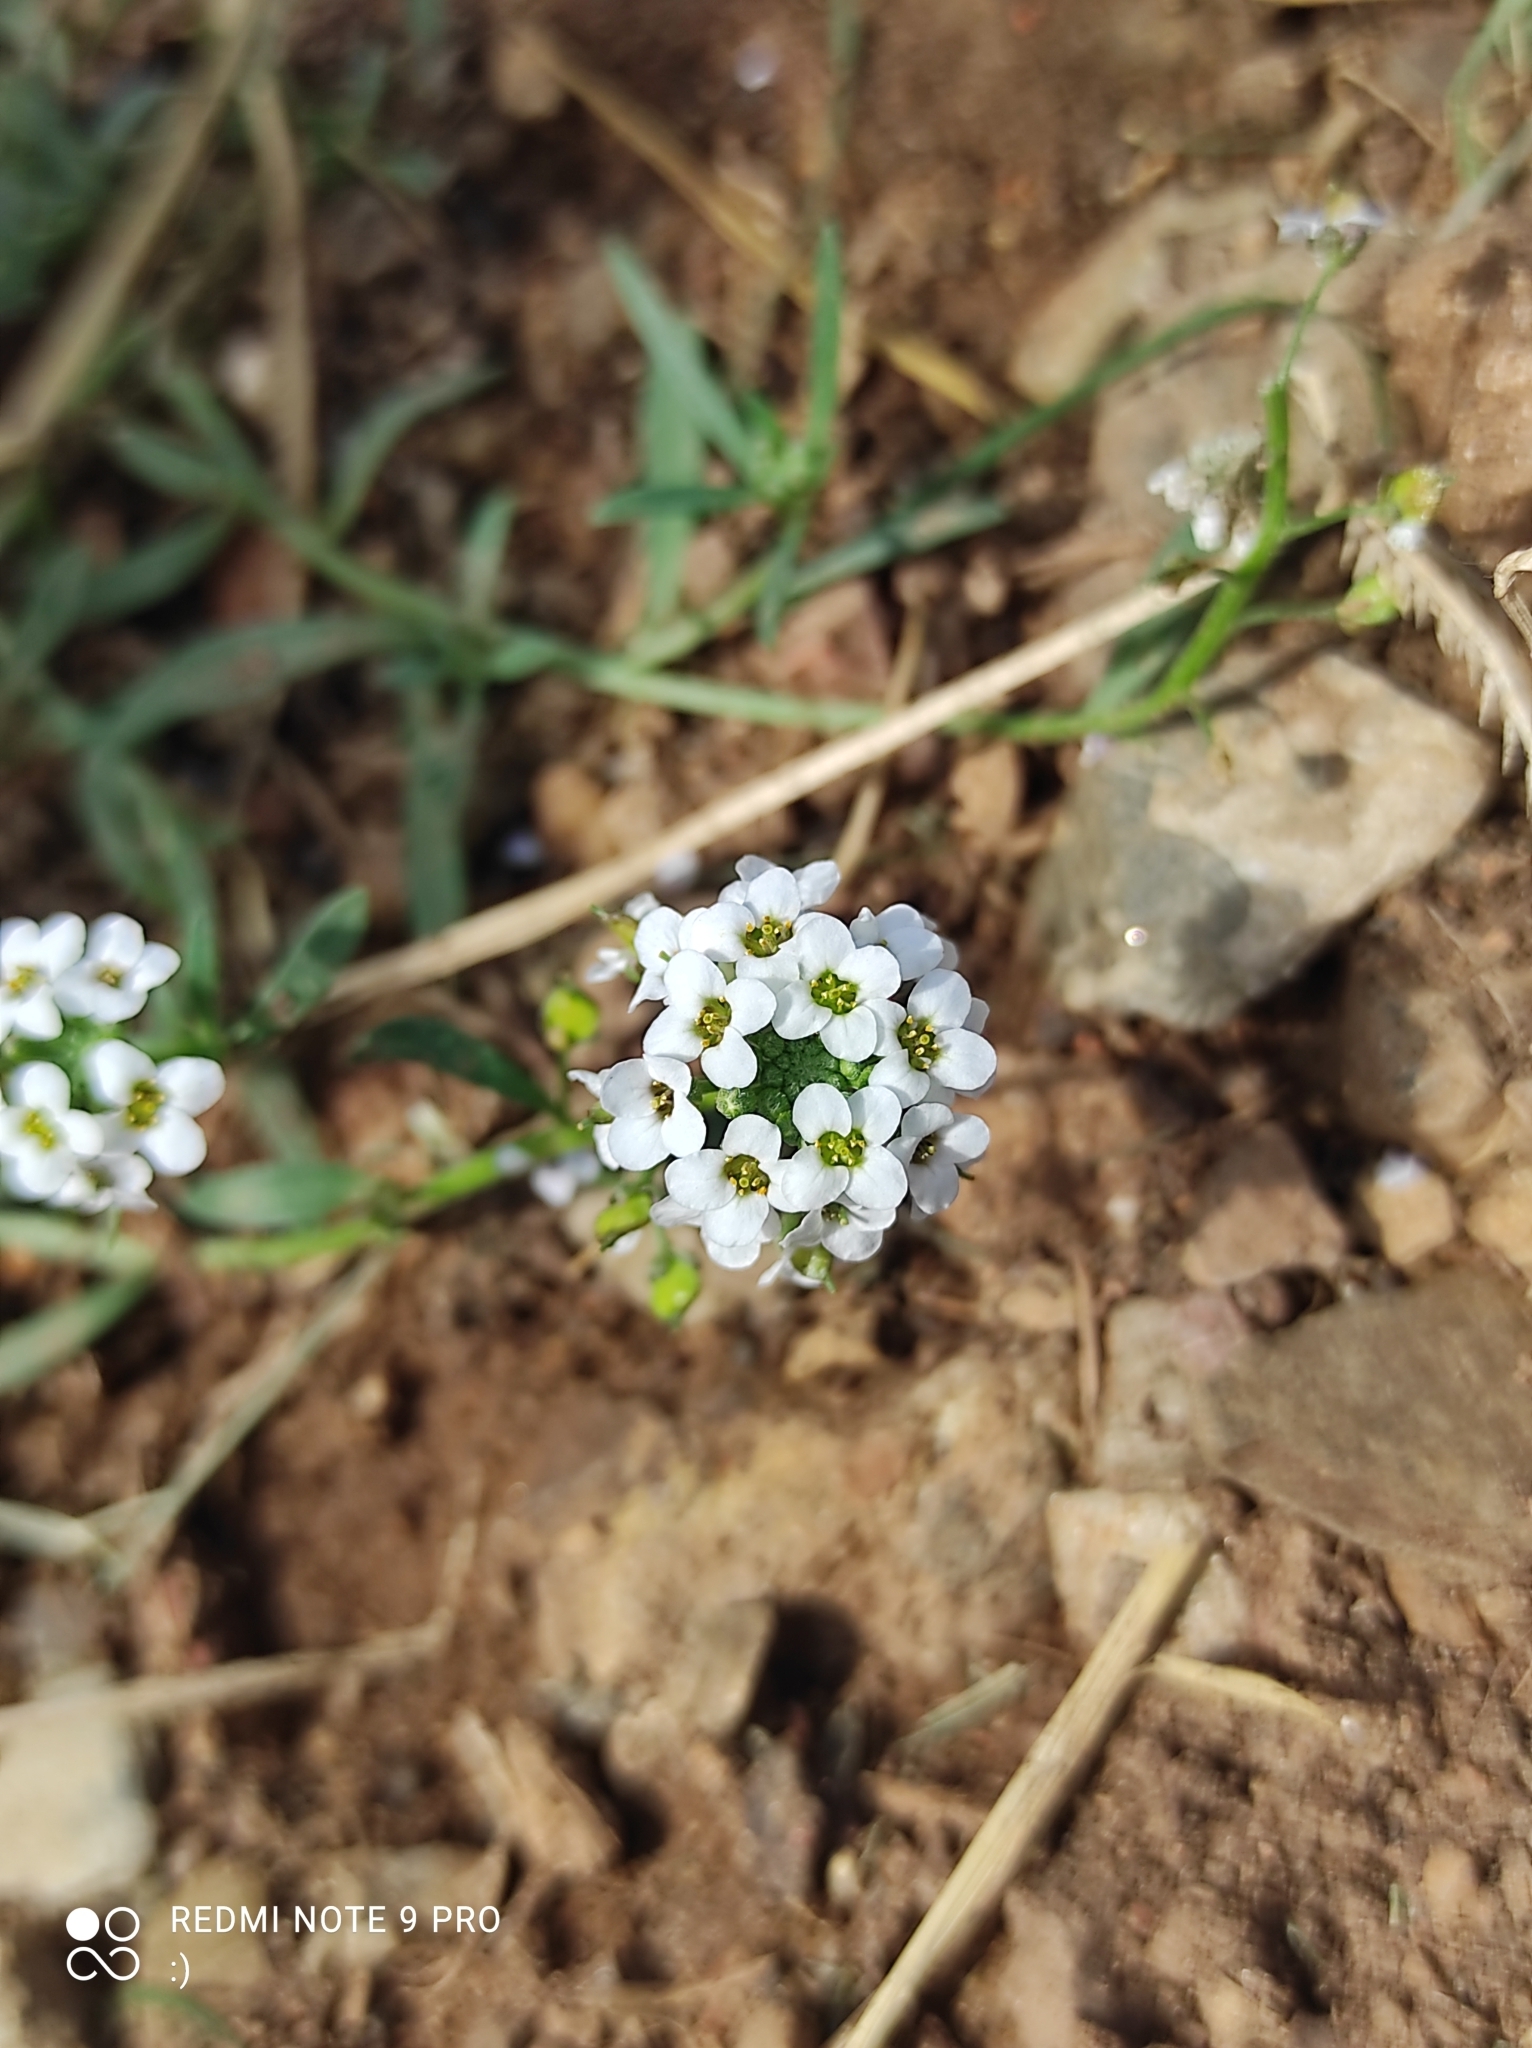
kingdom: Plantae
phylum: Tracheophyta
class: Magnoliopsida
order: Brassicales
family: Brassicaceae
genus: Lobularia
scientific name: Lobularia maritima
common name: Sweet alison
